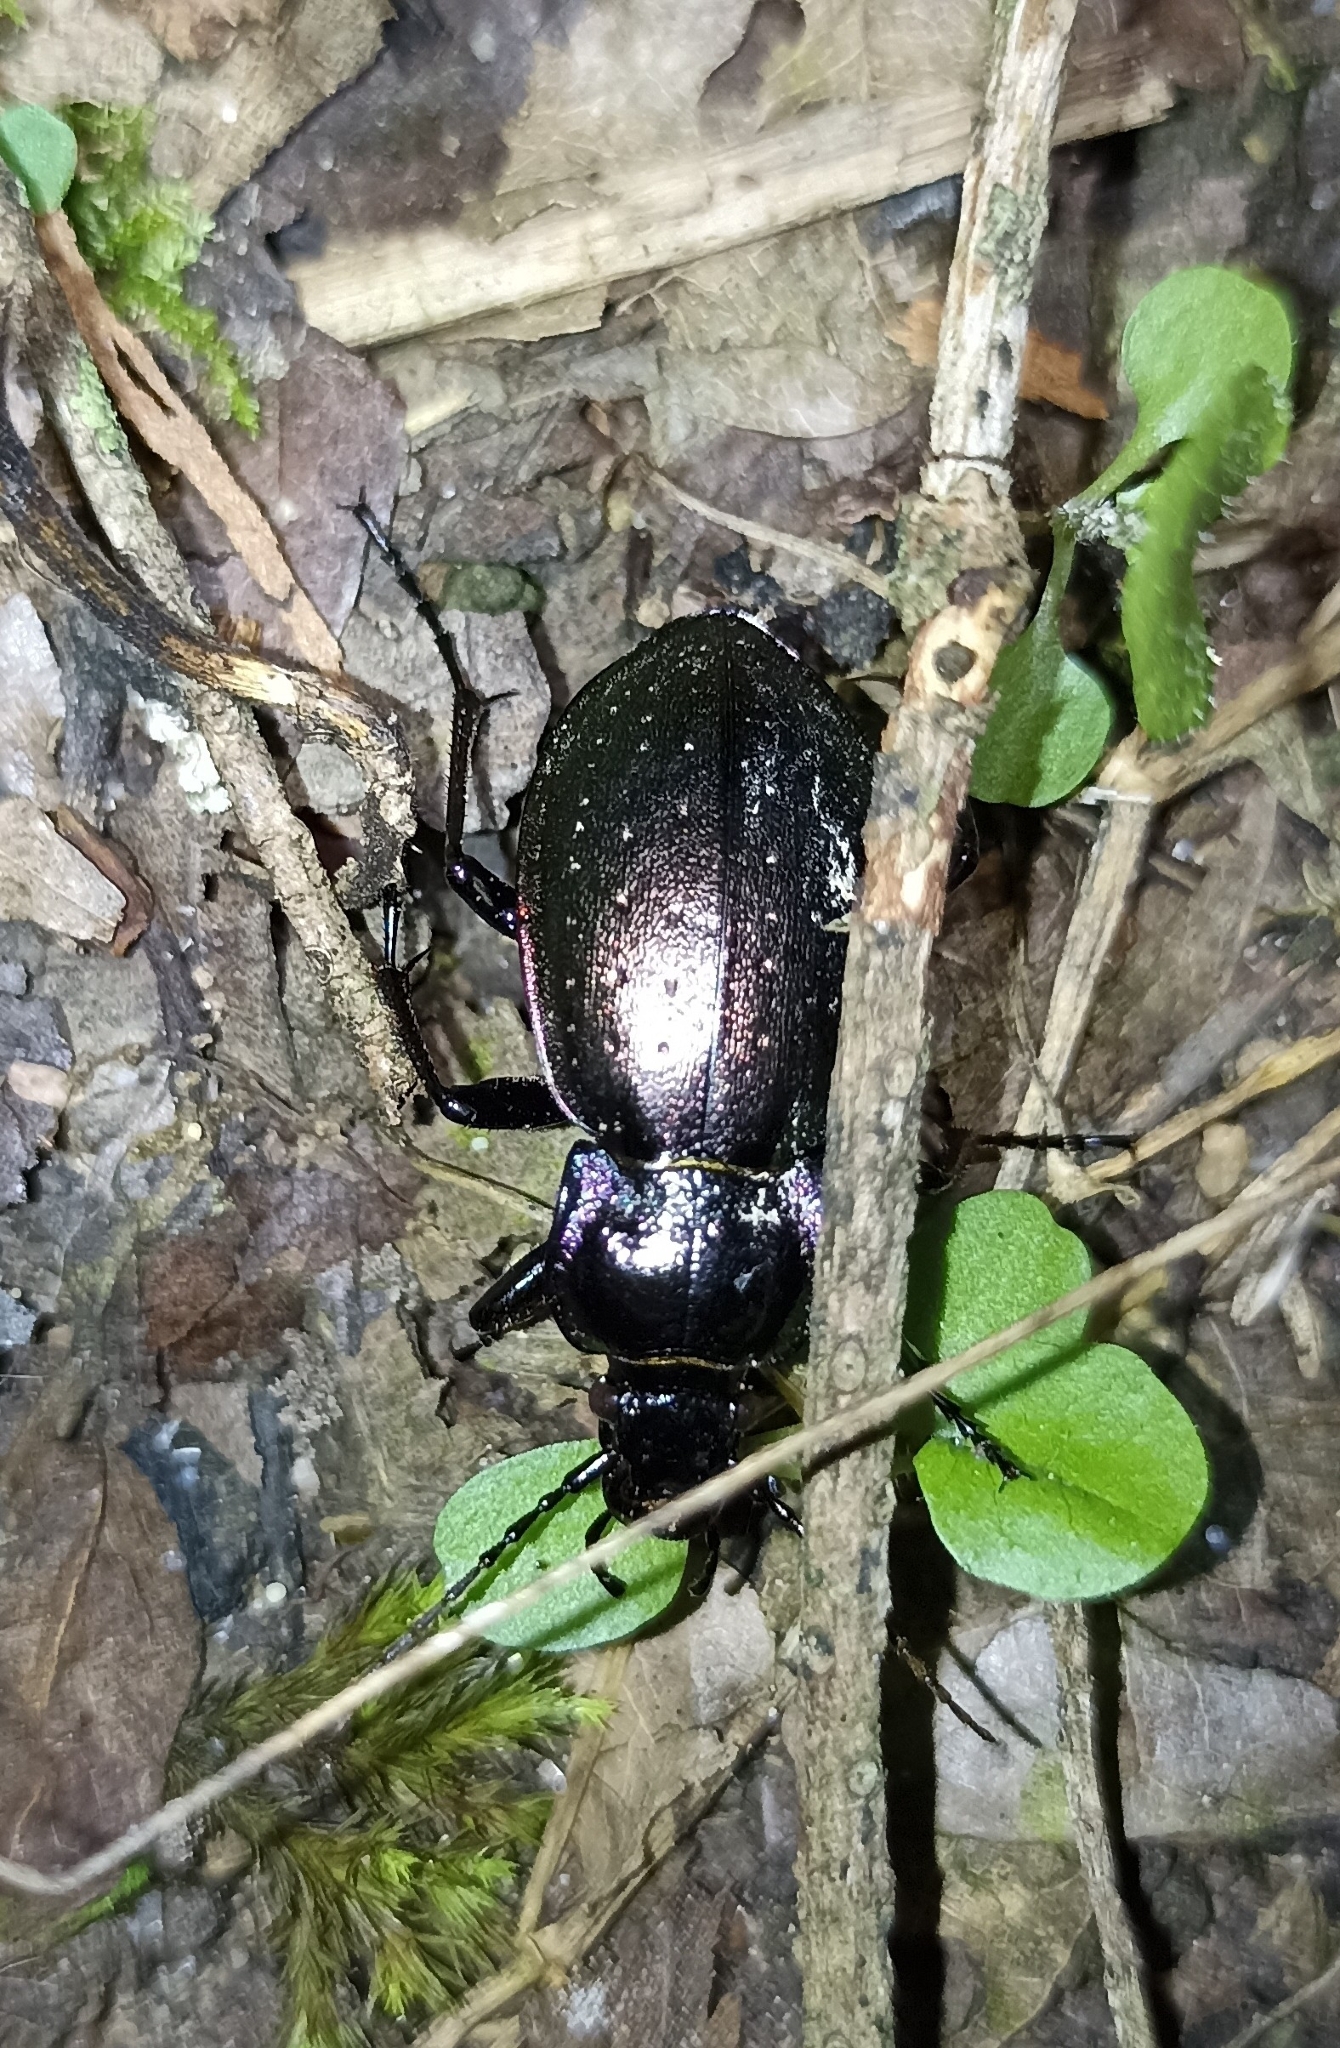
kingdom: Animalia
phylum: Arthropoda
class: Insecta
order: Coleoptera
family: Carabidae
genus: Carabus
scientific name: Carabus nemoralis
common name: European ground beetle
